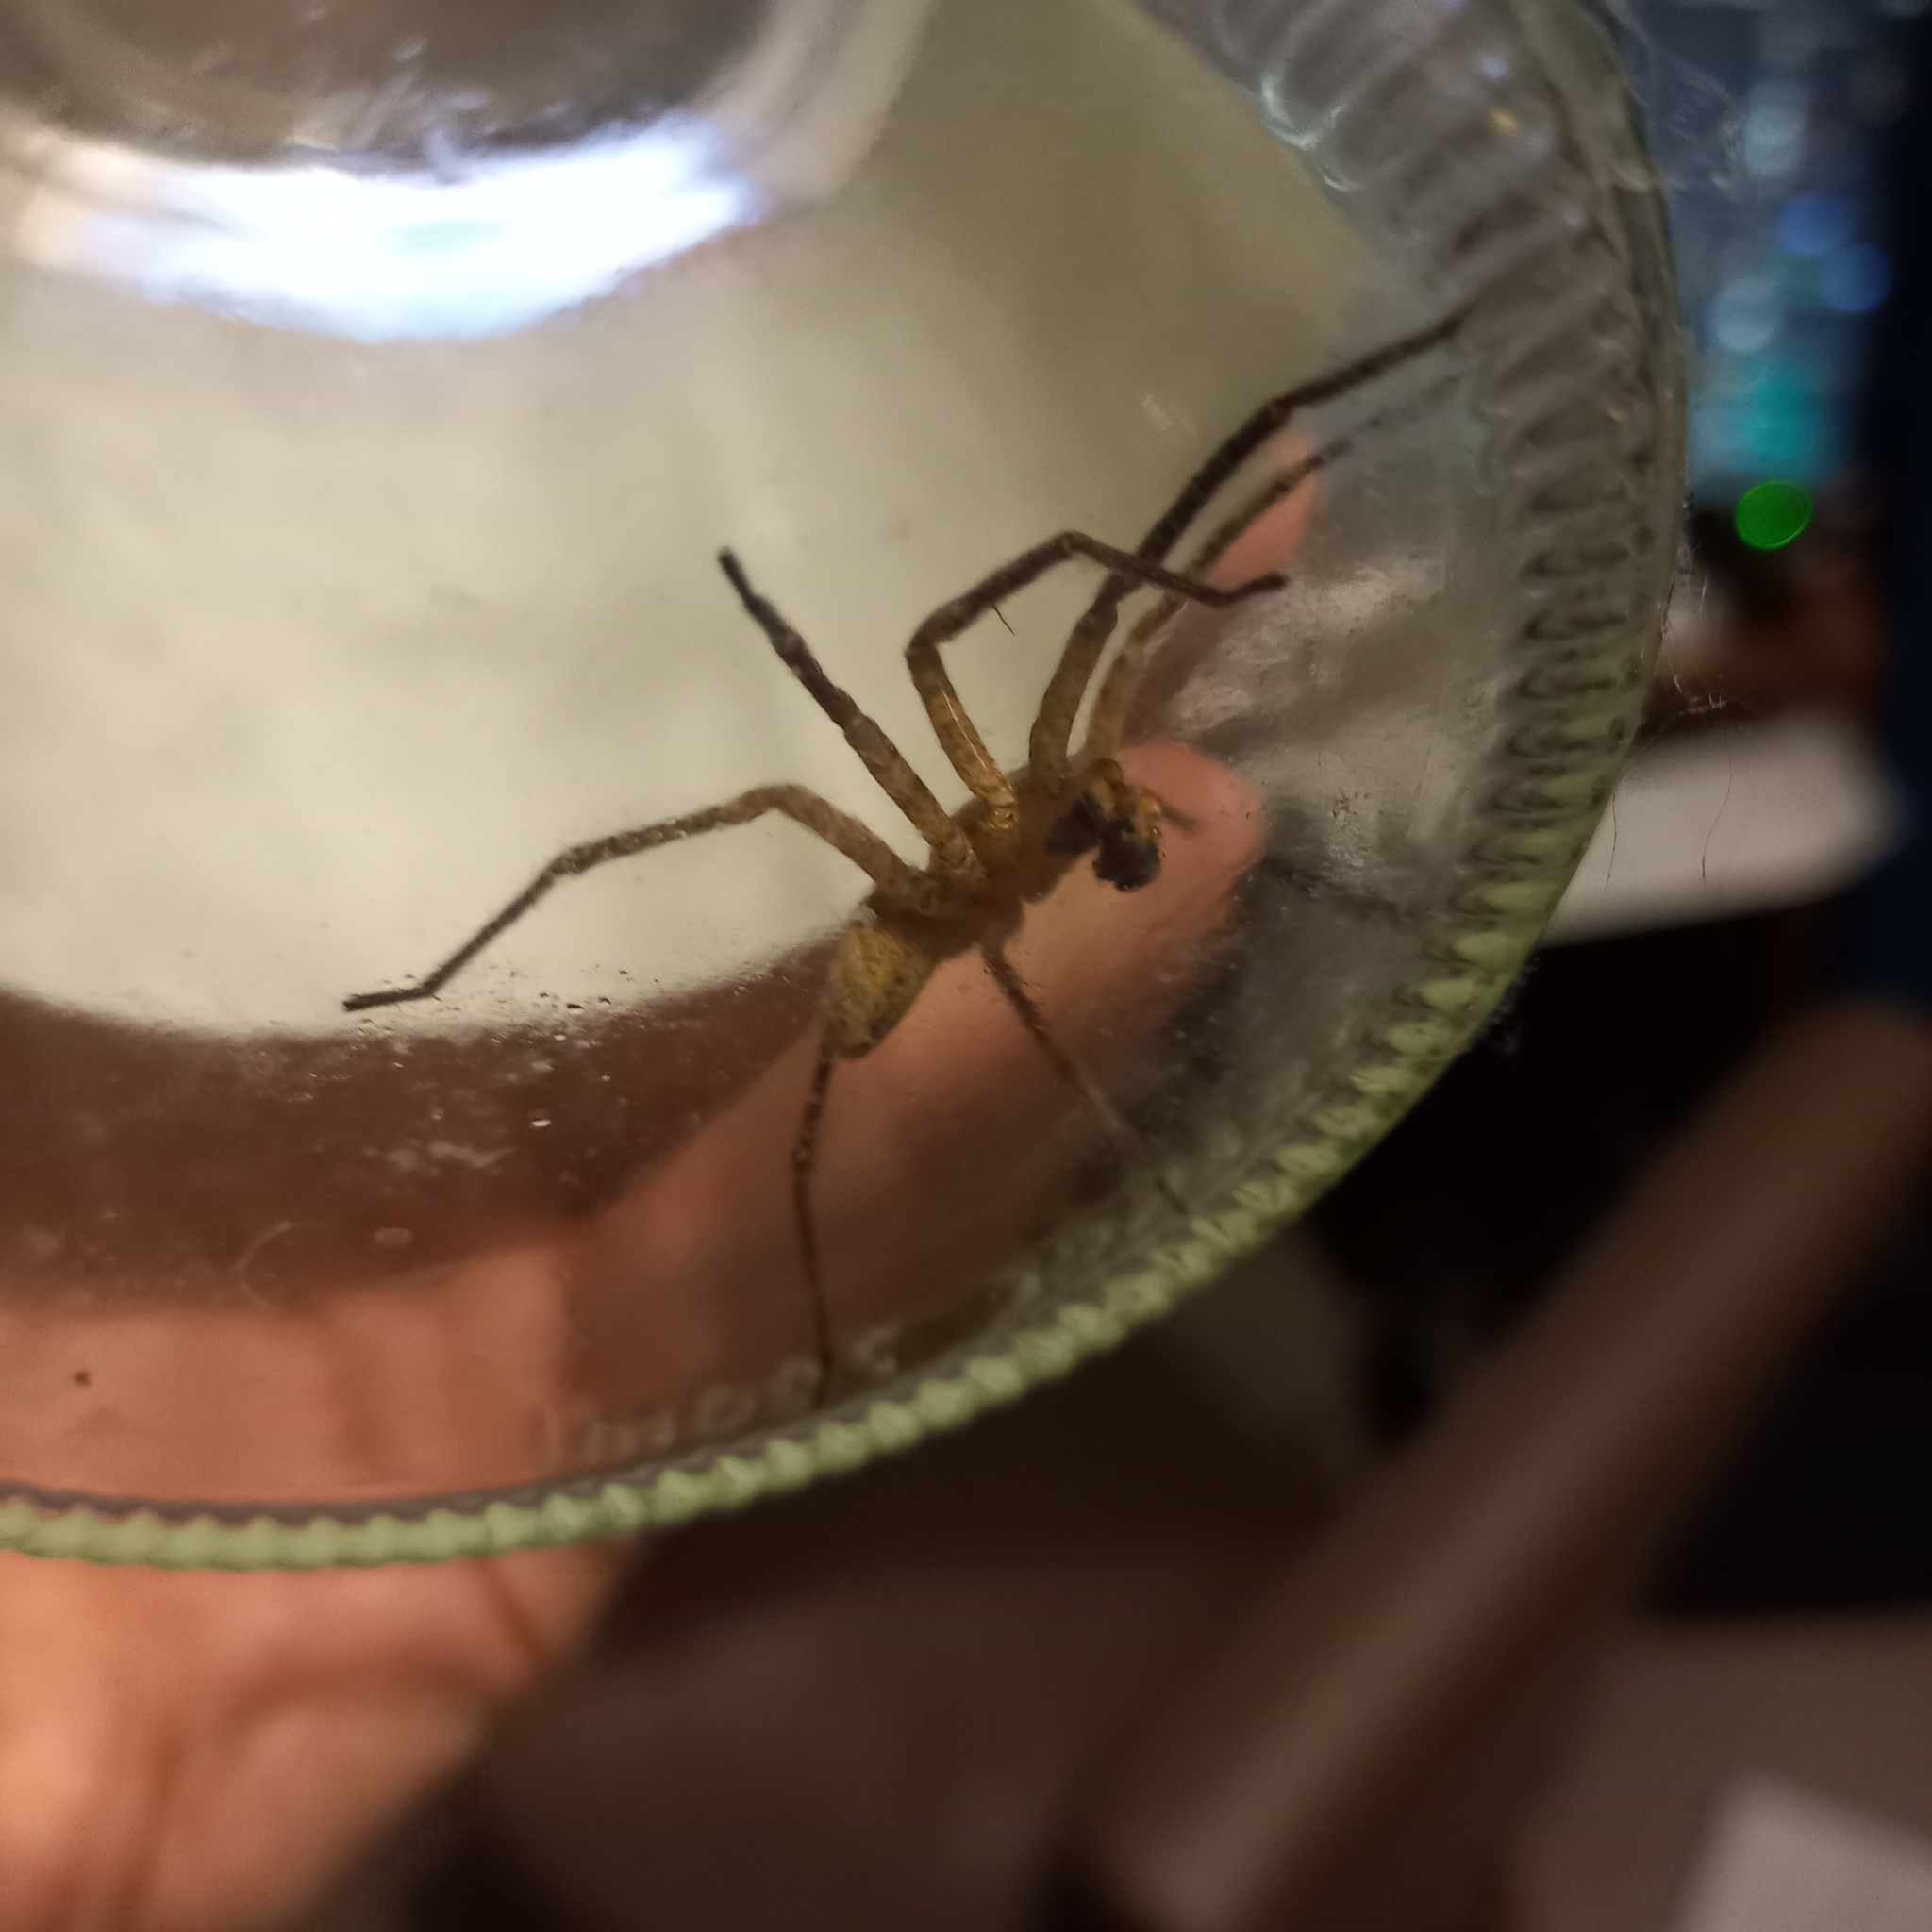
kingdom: Animalia
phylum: Arthropoda
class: Arachnida
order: Araneae
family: Zoropsidae
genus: Zoropsis
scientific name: Zoropsis spinimana
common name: Zoropsid spider
